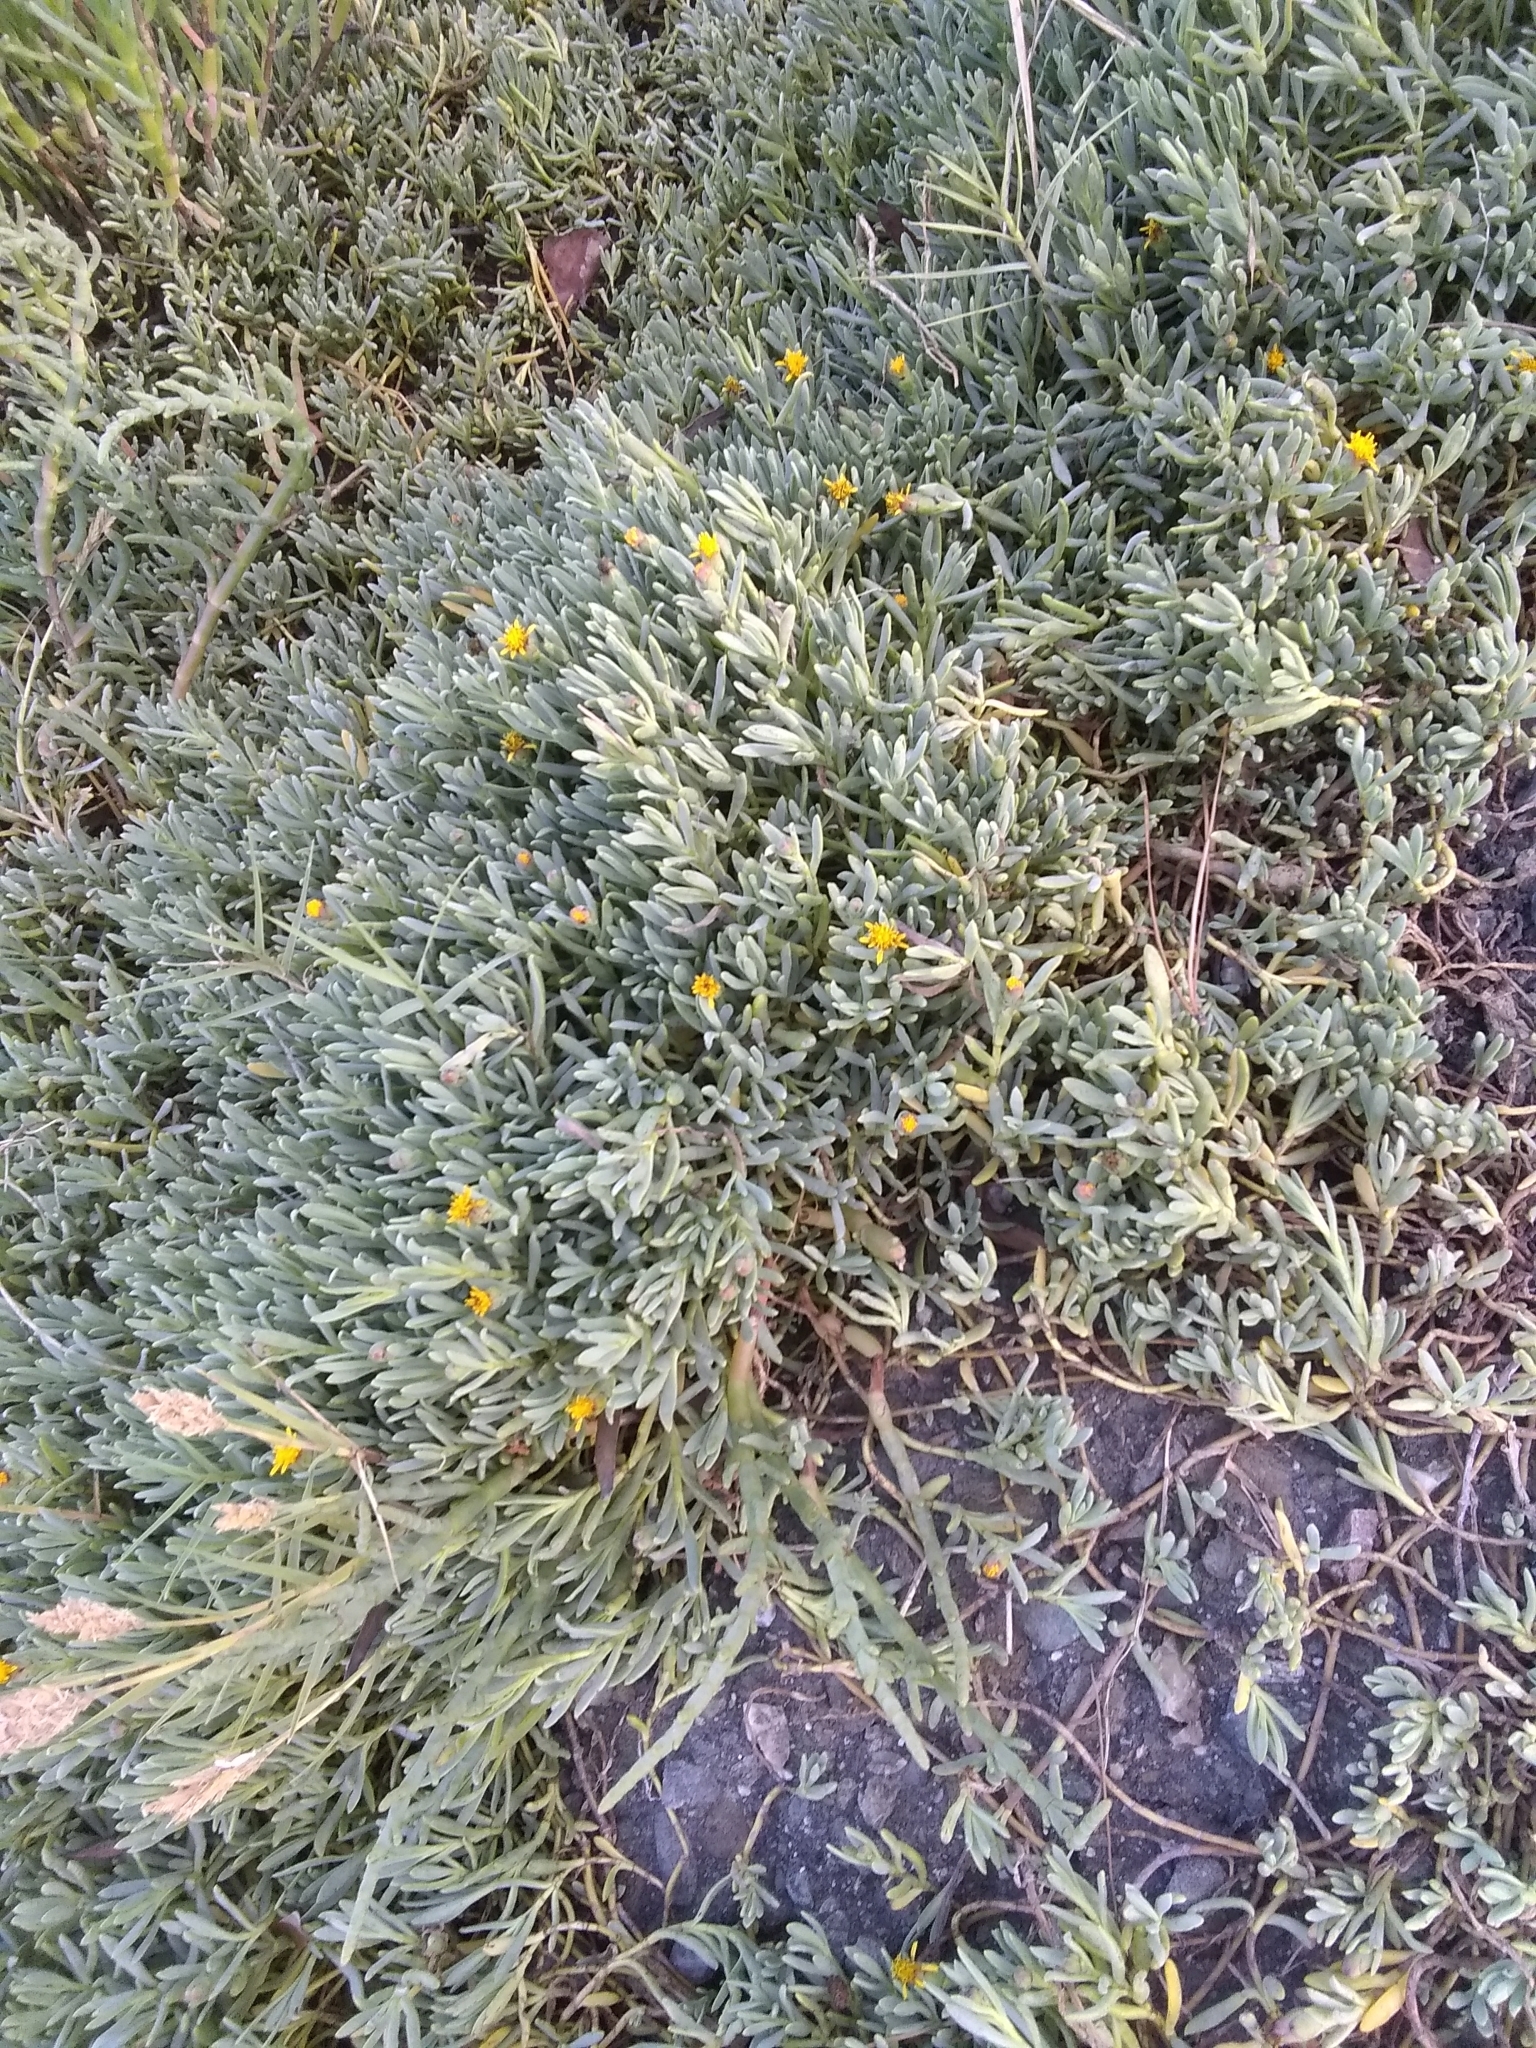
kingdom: Plantae
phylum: Tracheophyta
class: Magnoliopsida
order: Asterales
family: Asteraceae
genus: Jaumea
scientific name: Jaumea carnosa
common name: Fleshy jaumea
